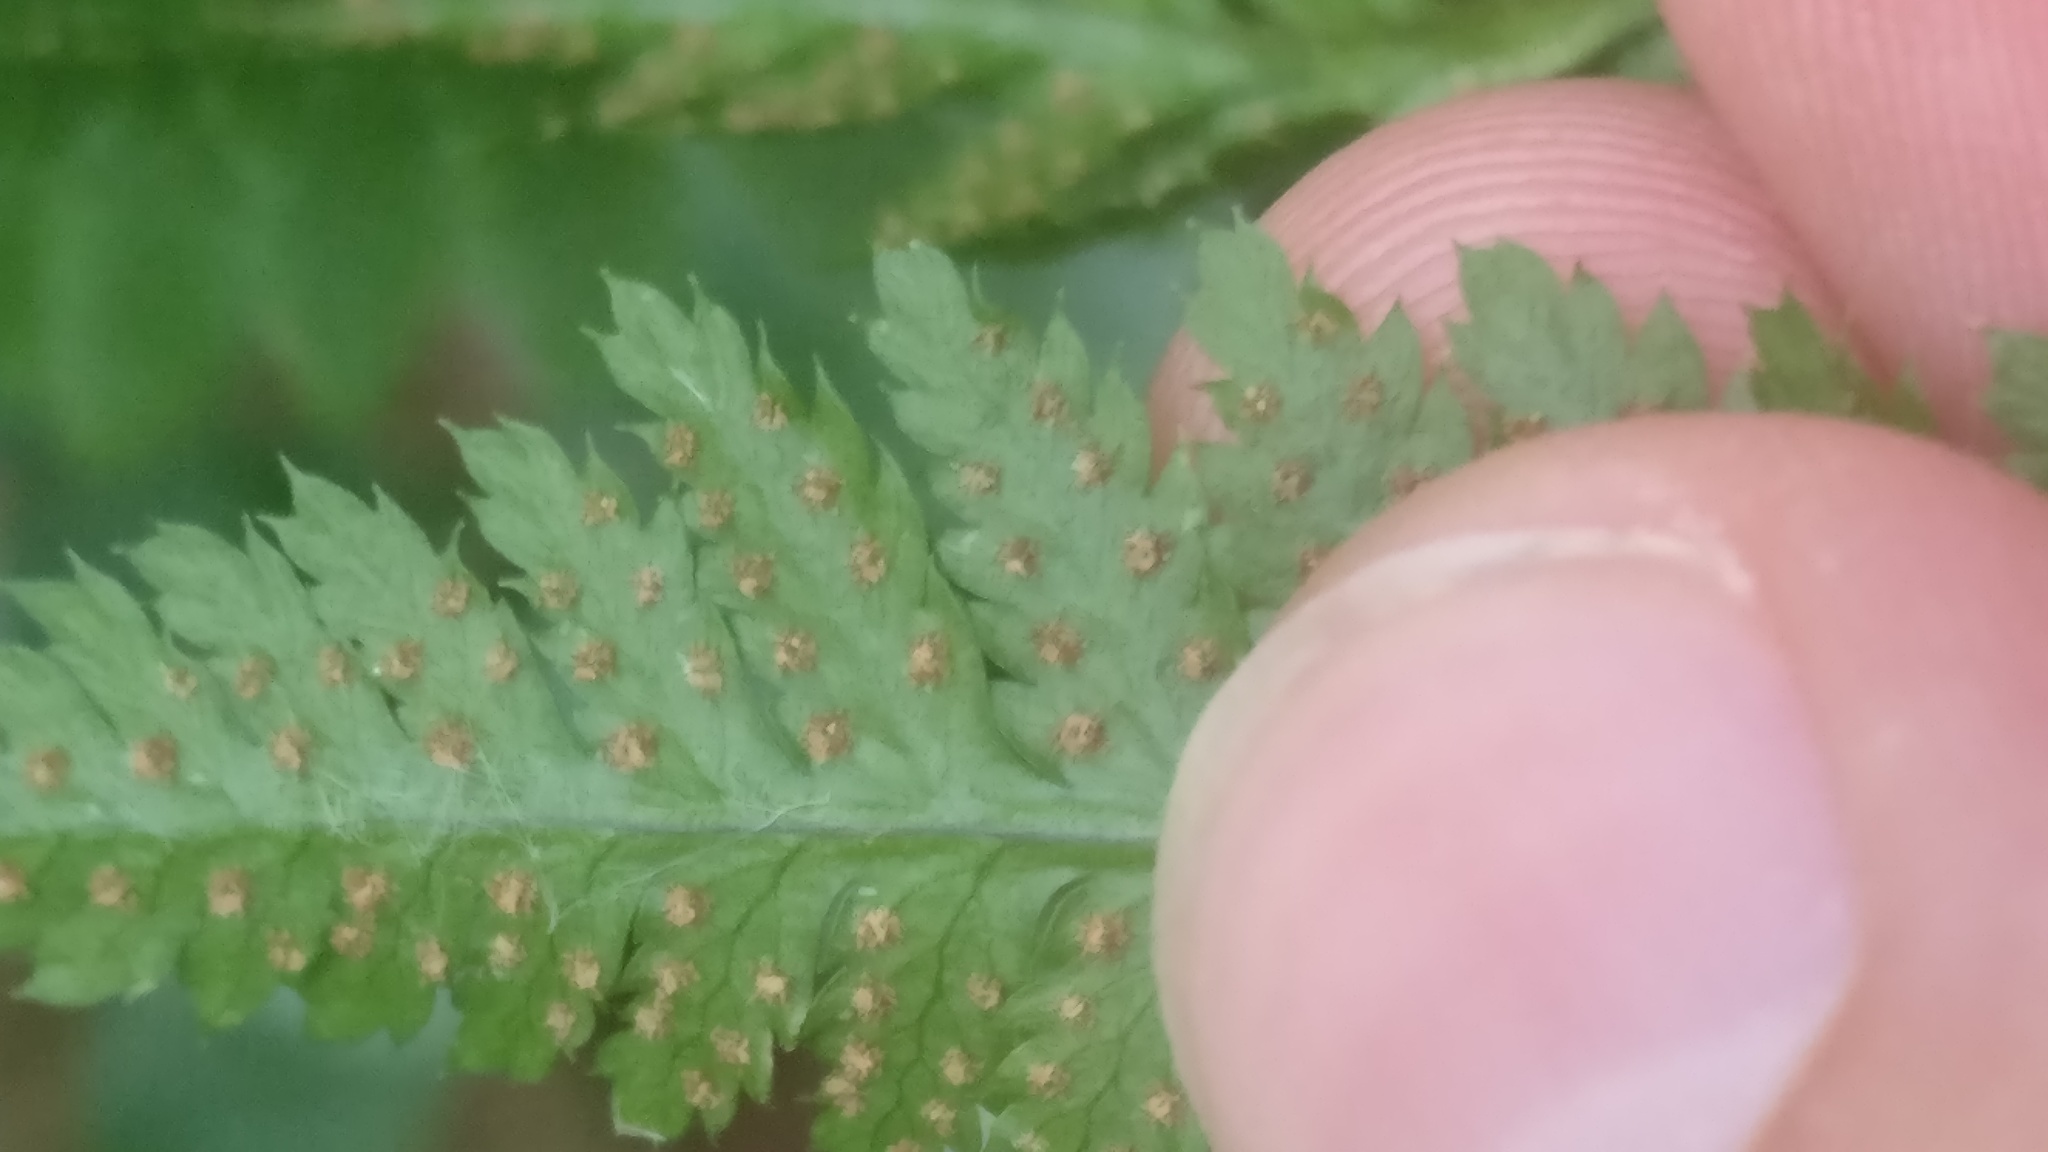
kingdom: Plantae
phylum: Tracheophyta
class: Polypodiopsida
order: Polypodiales
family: Dryopteridaceae
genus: Dryopteris
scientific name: Dryopteris carthusiana
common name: Narrow buckler-fern
